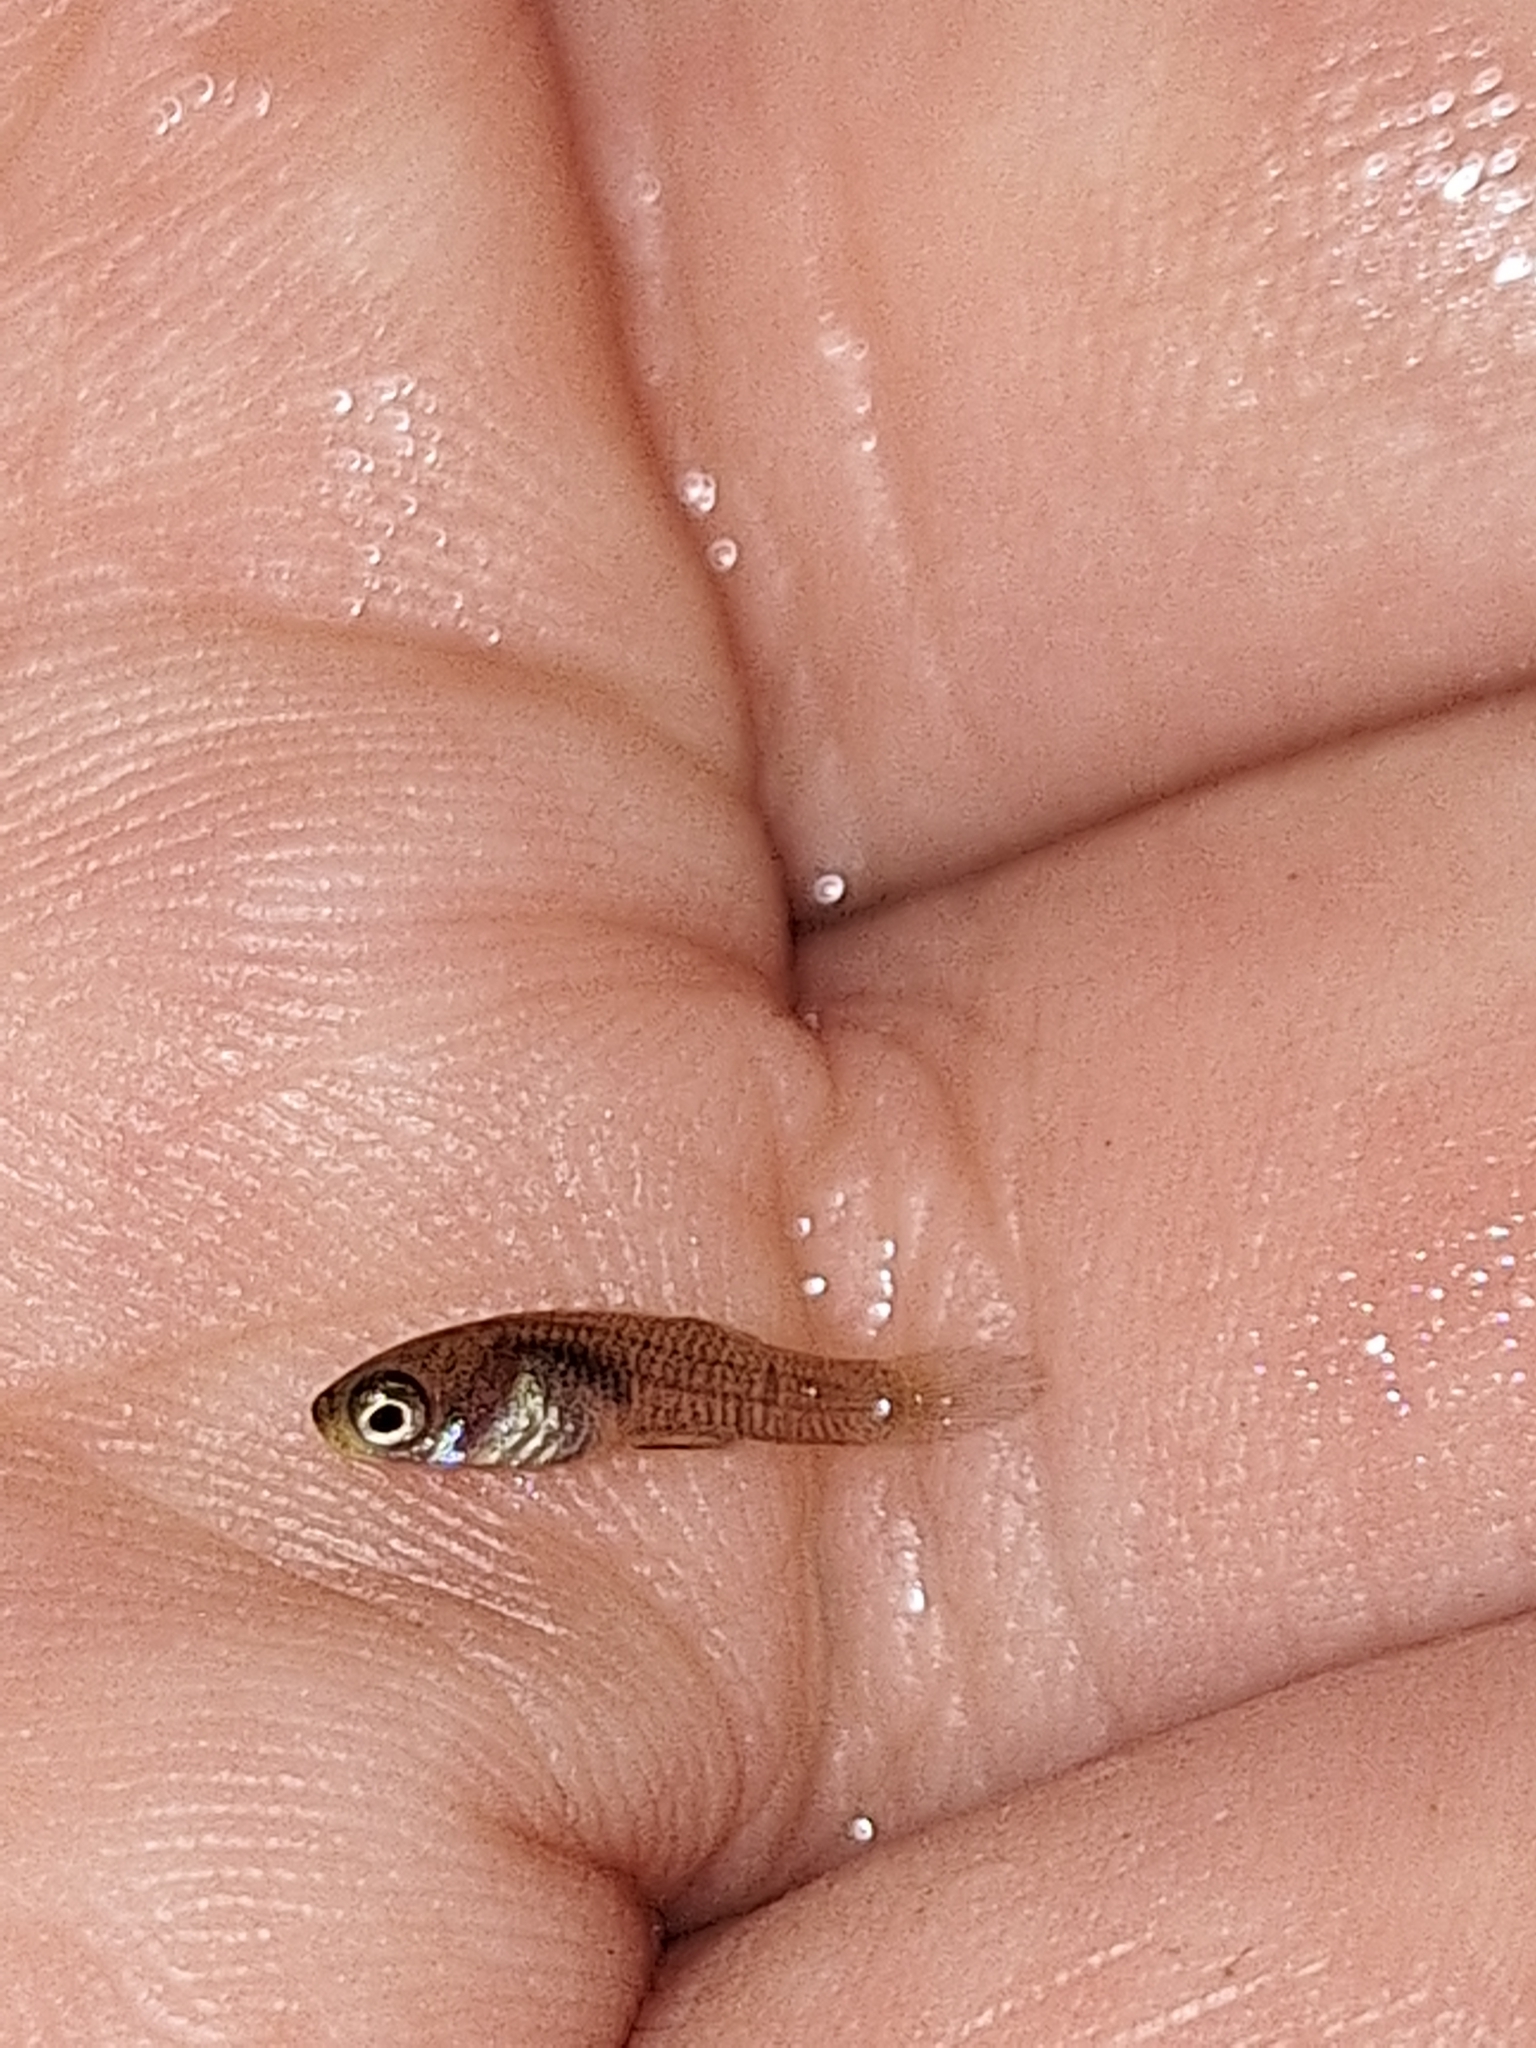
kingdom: Animalia
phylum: Chordata
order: Cyprinodontiformes
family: Poeciliidae
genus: Phalloceros
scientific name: Phalloceros caudimaculatus
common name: Dusky millions fish
